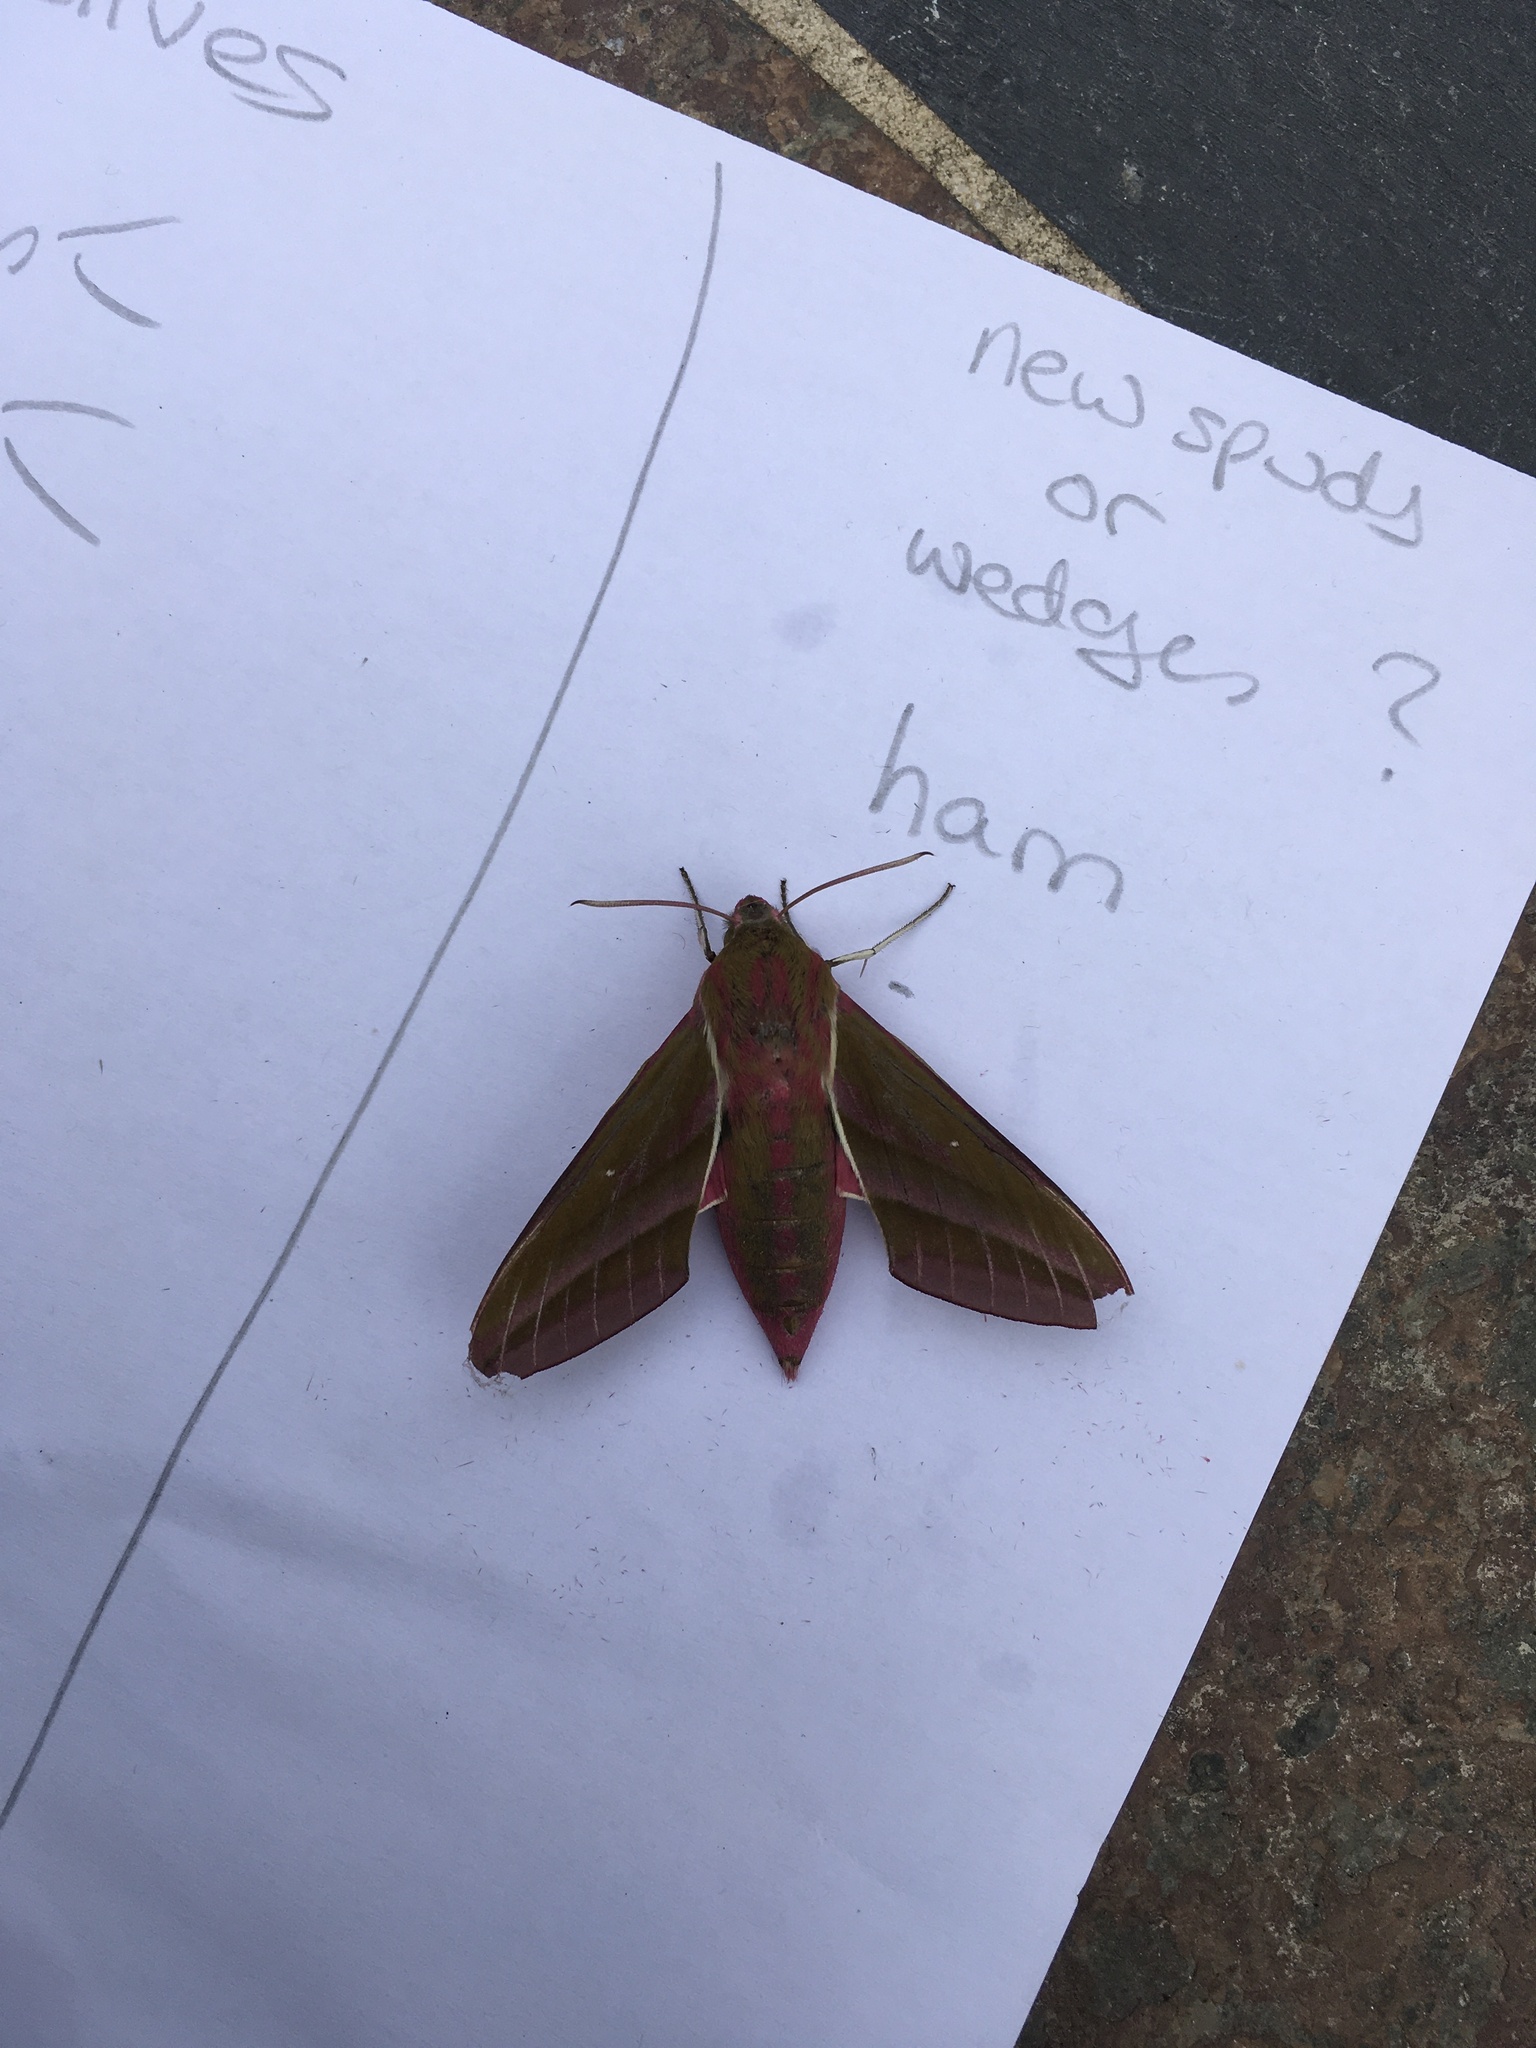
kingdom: Animalia
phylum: Arthropoda
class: Insecta
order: Lepidoptera
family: Sphingidae
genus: Deilephila
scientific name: Deilephila elpenor
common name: Elephant hawk-moth
